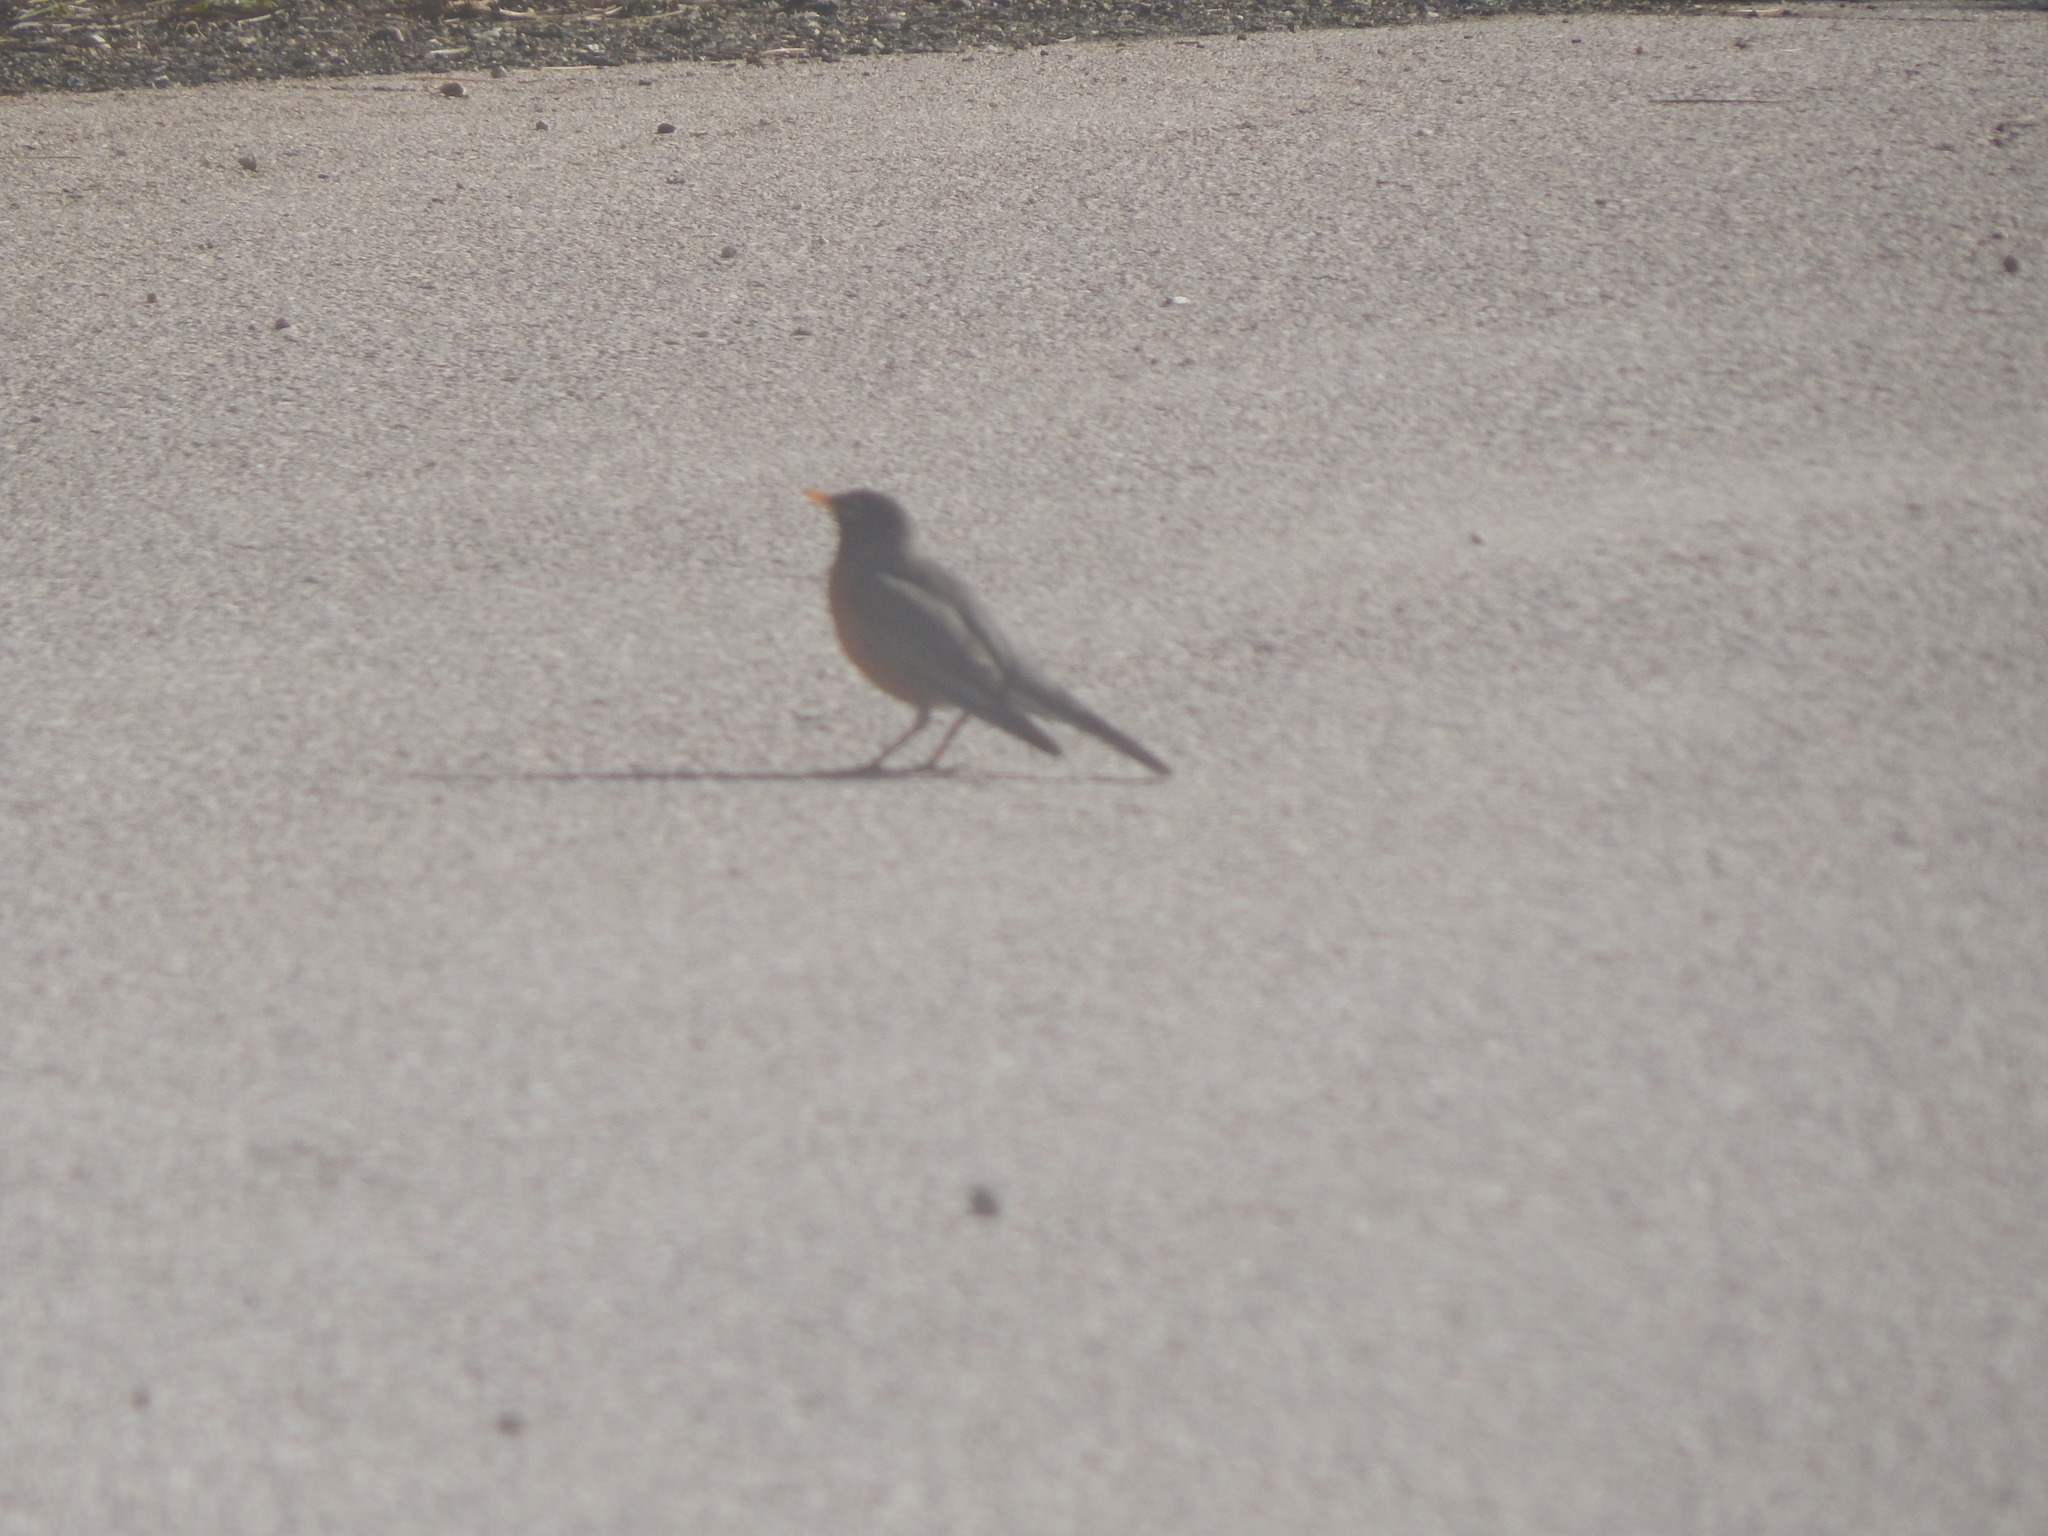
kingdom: Animalia
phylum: Chordata
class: Aves
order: Passeriformes
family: Turdidae
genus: Turdus
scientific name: Turdus migratorius
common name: American robin
